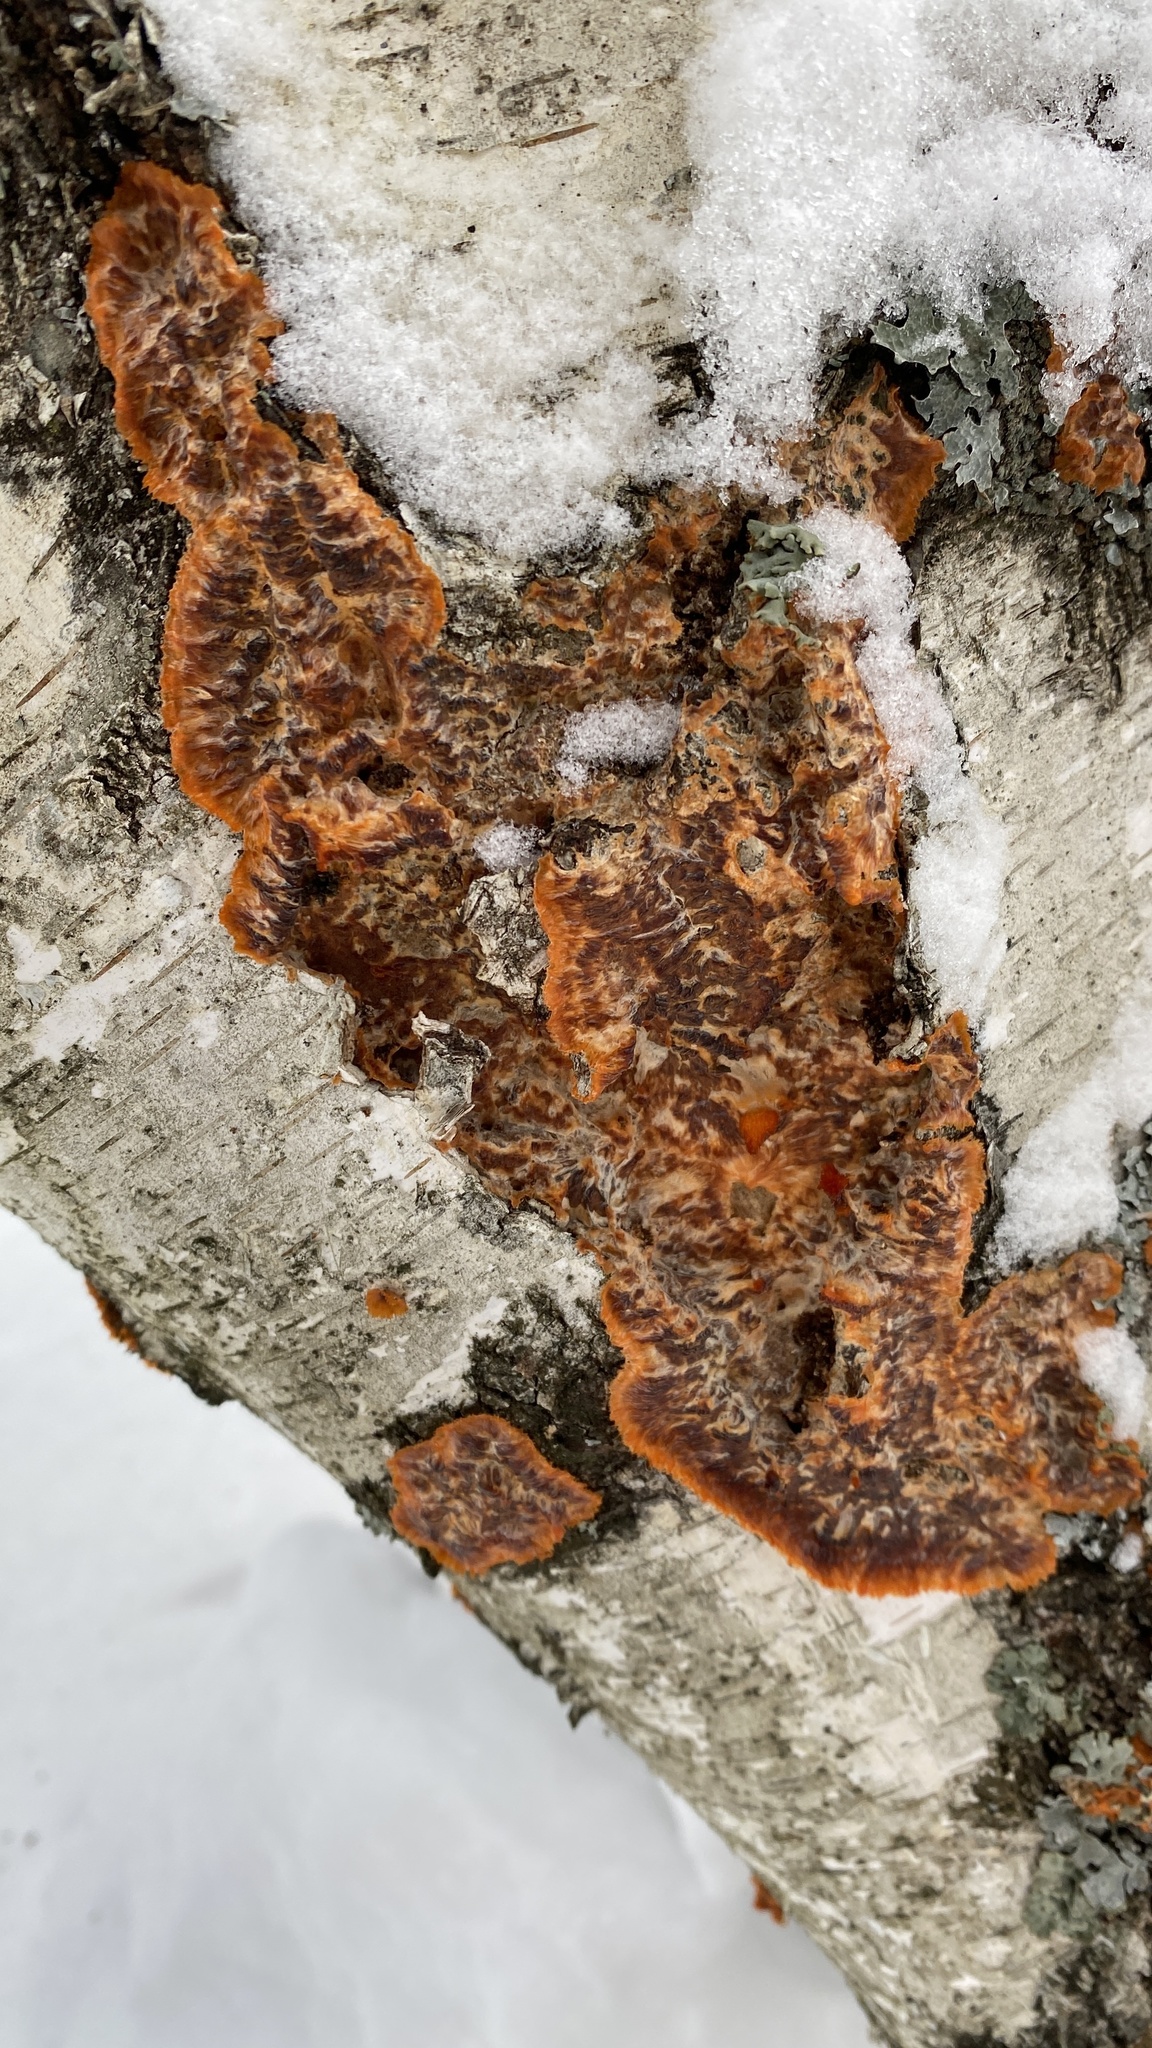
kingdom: Fungi
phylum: Basidiomycota
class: Agaricomycetes
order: Polyporales
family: Meruliaceae
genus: Phlebia
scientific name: Phlebia radiata
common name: Wrinkled crust
